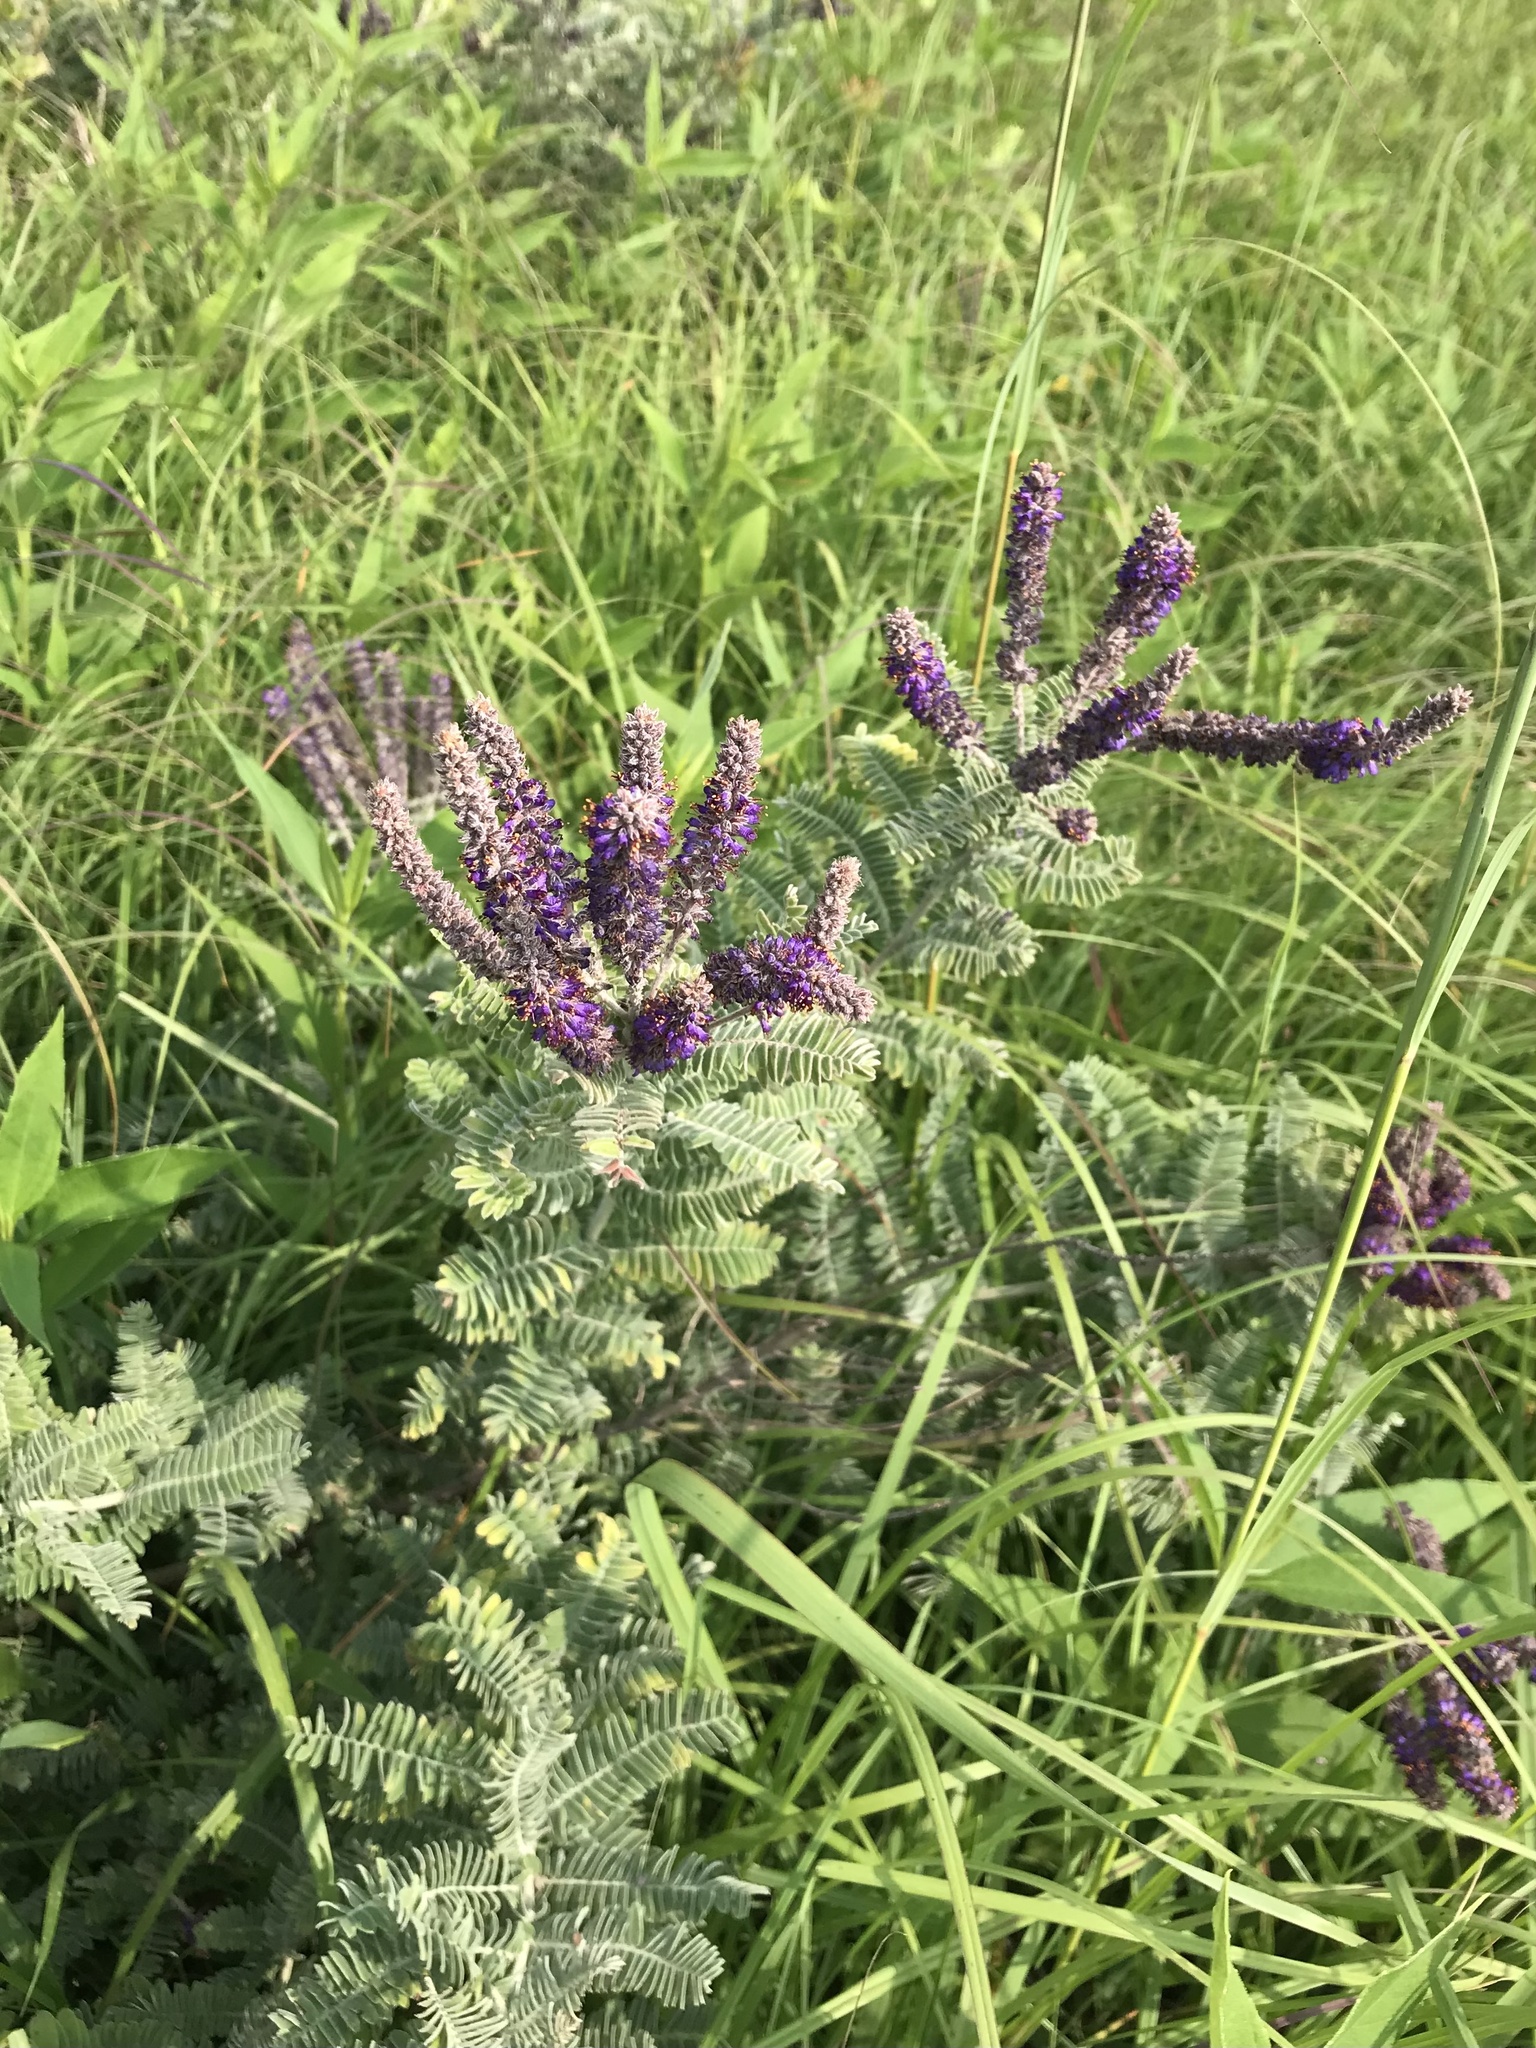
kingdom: Plantae
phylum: Tracheophyta
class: Magnoliopsida
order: Fabales
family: Fabaceae
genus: Amorpha
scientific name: Amorpha canescens
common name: Leadplant
